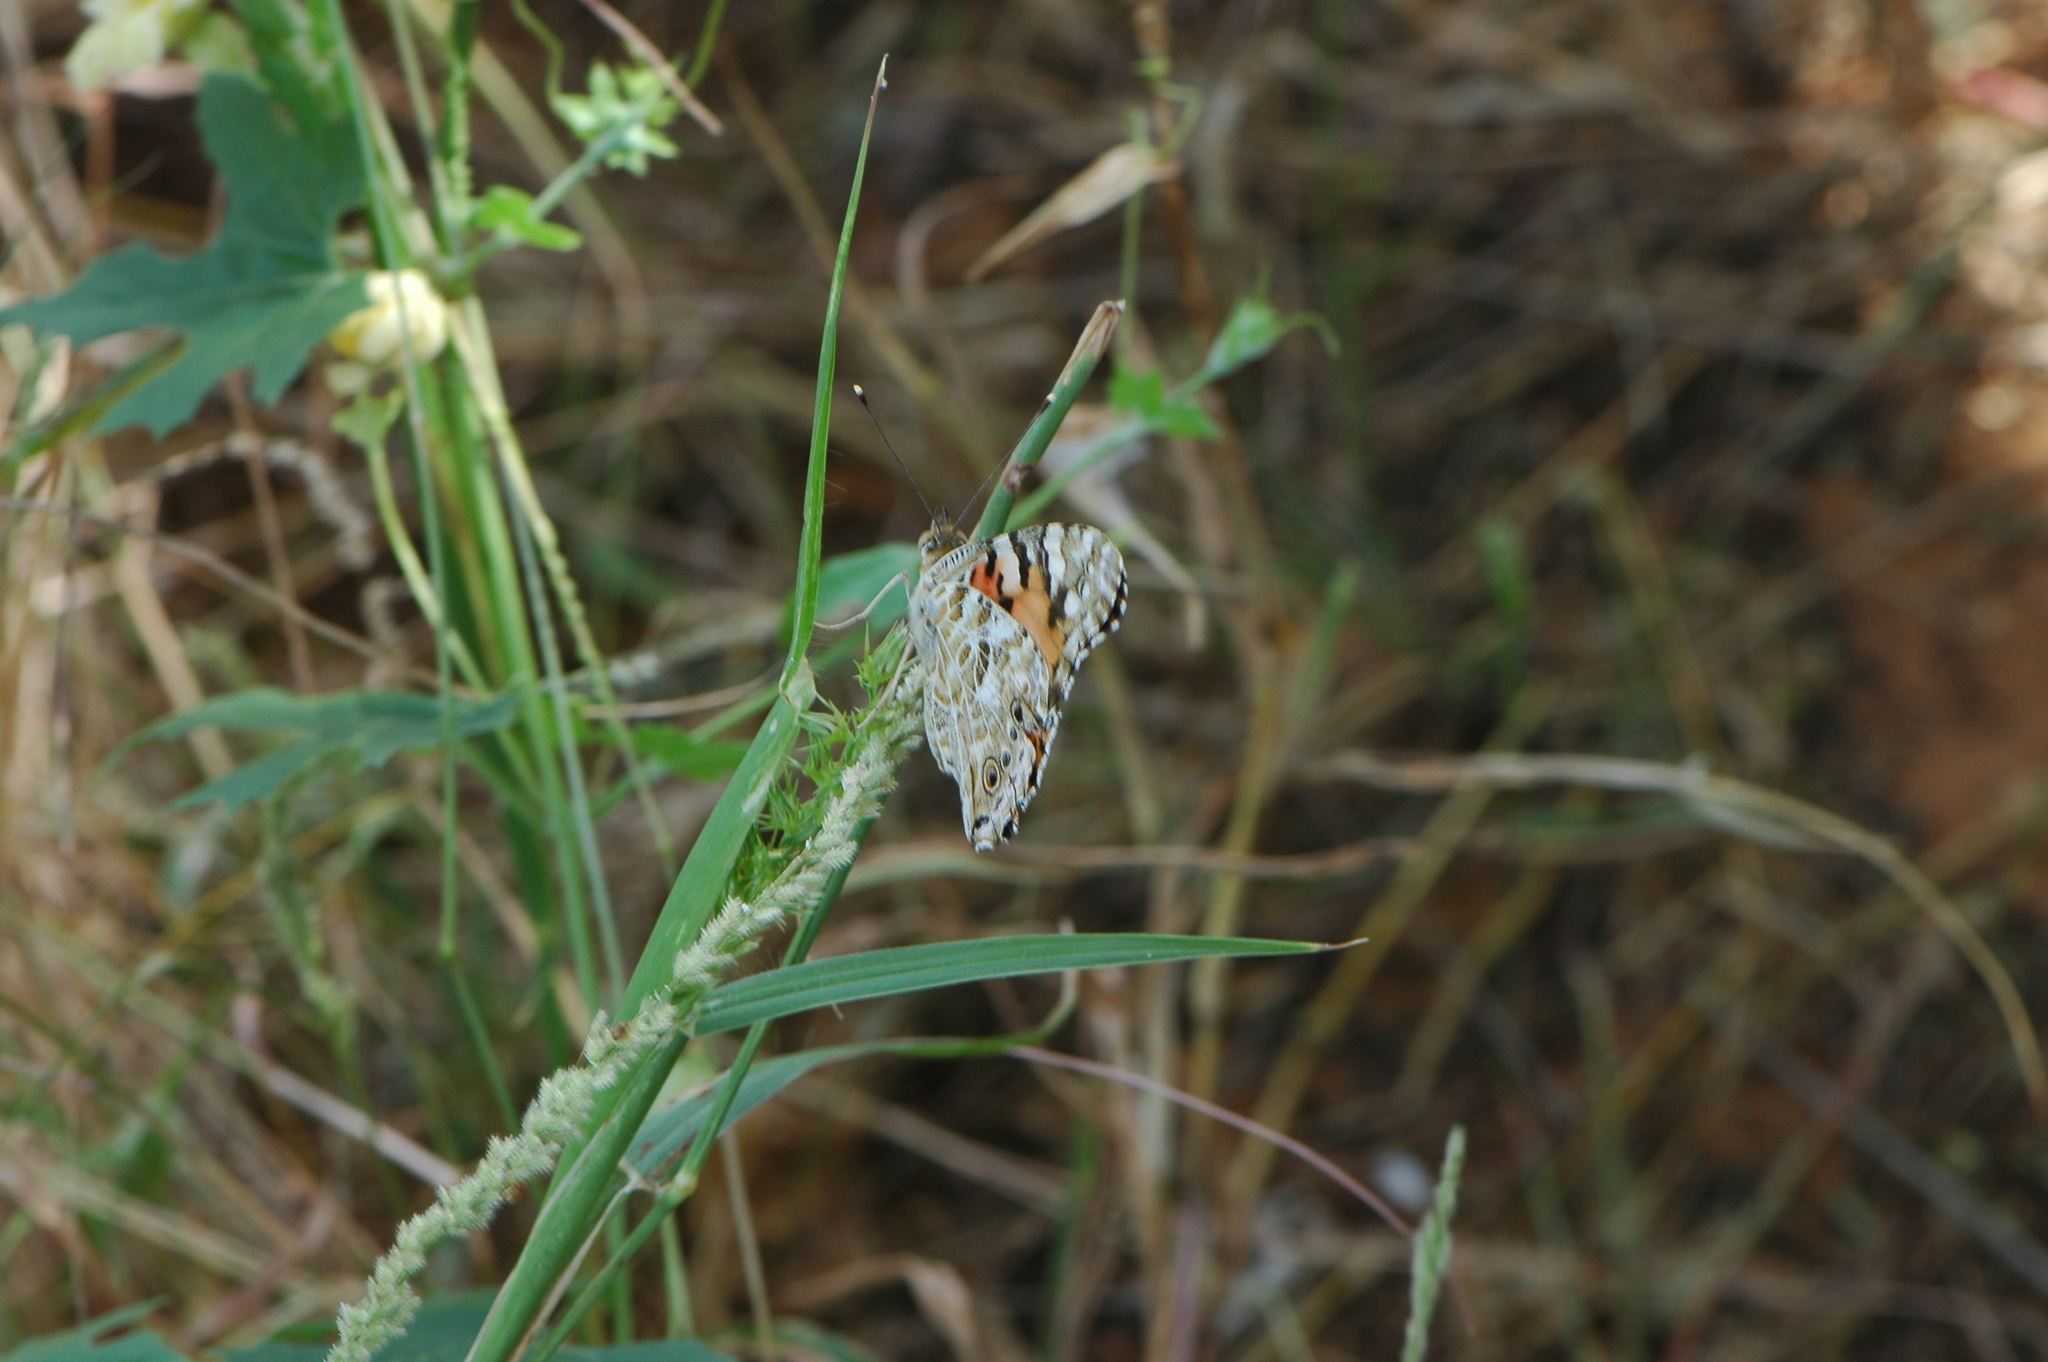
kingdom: Animalia
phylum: Arthropoda
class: Insecta
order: Lepidoptera
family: Nymphalidae
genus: Vanessa
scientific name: Vanessa cardui
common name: Painted lady
